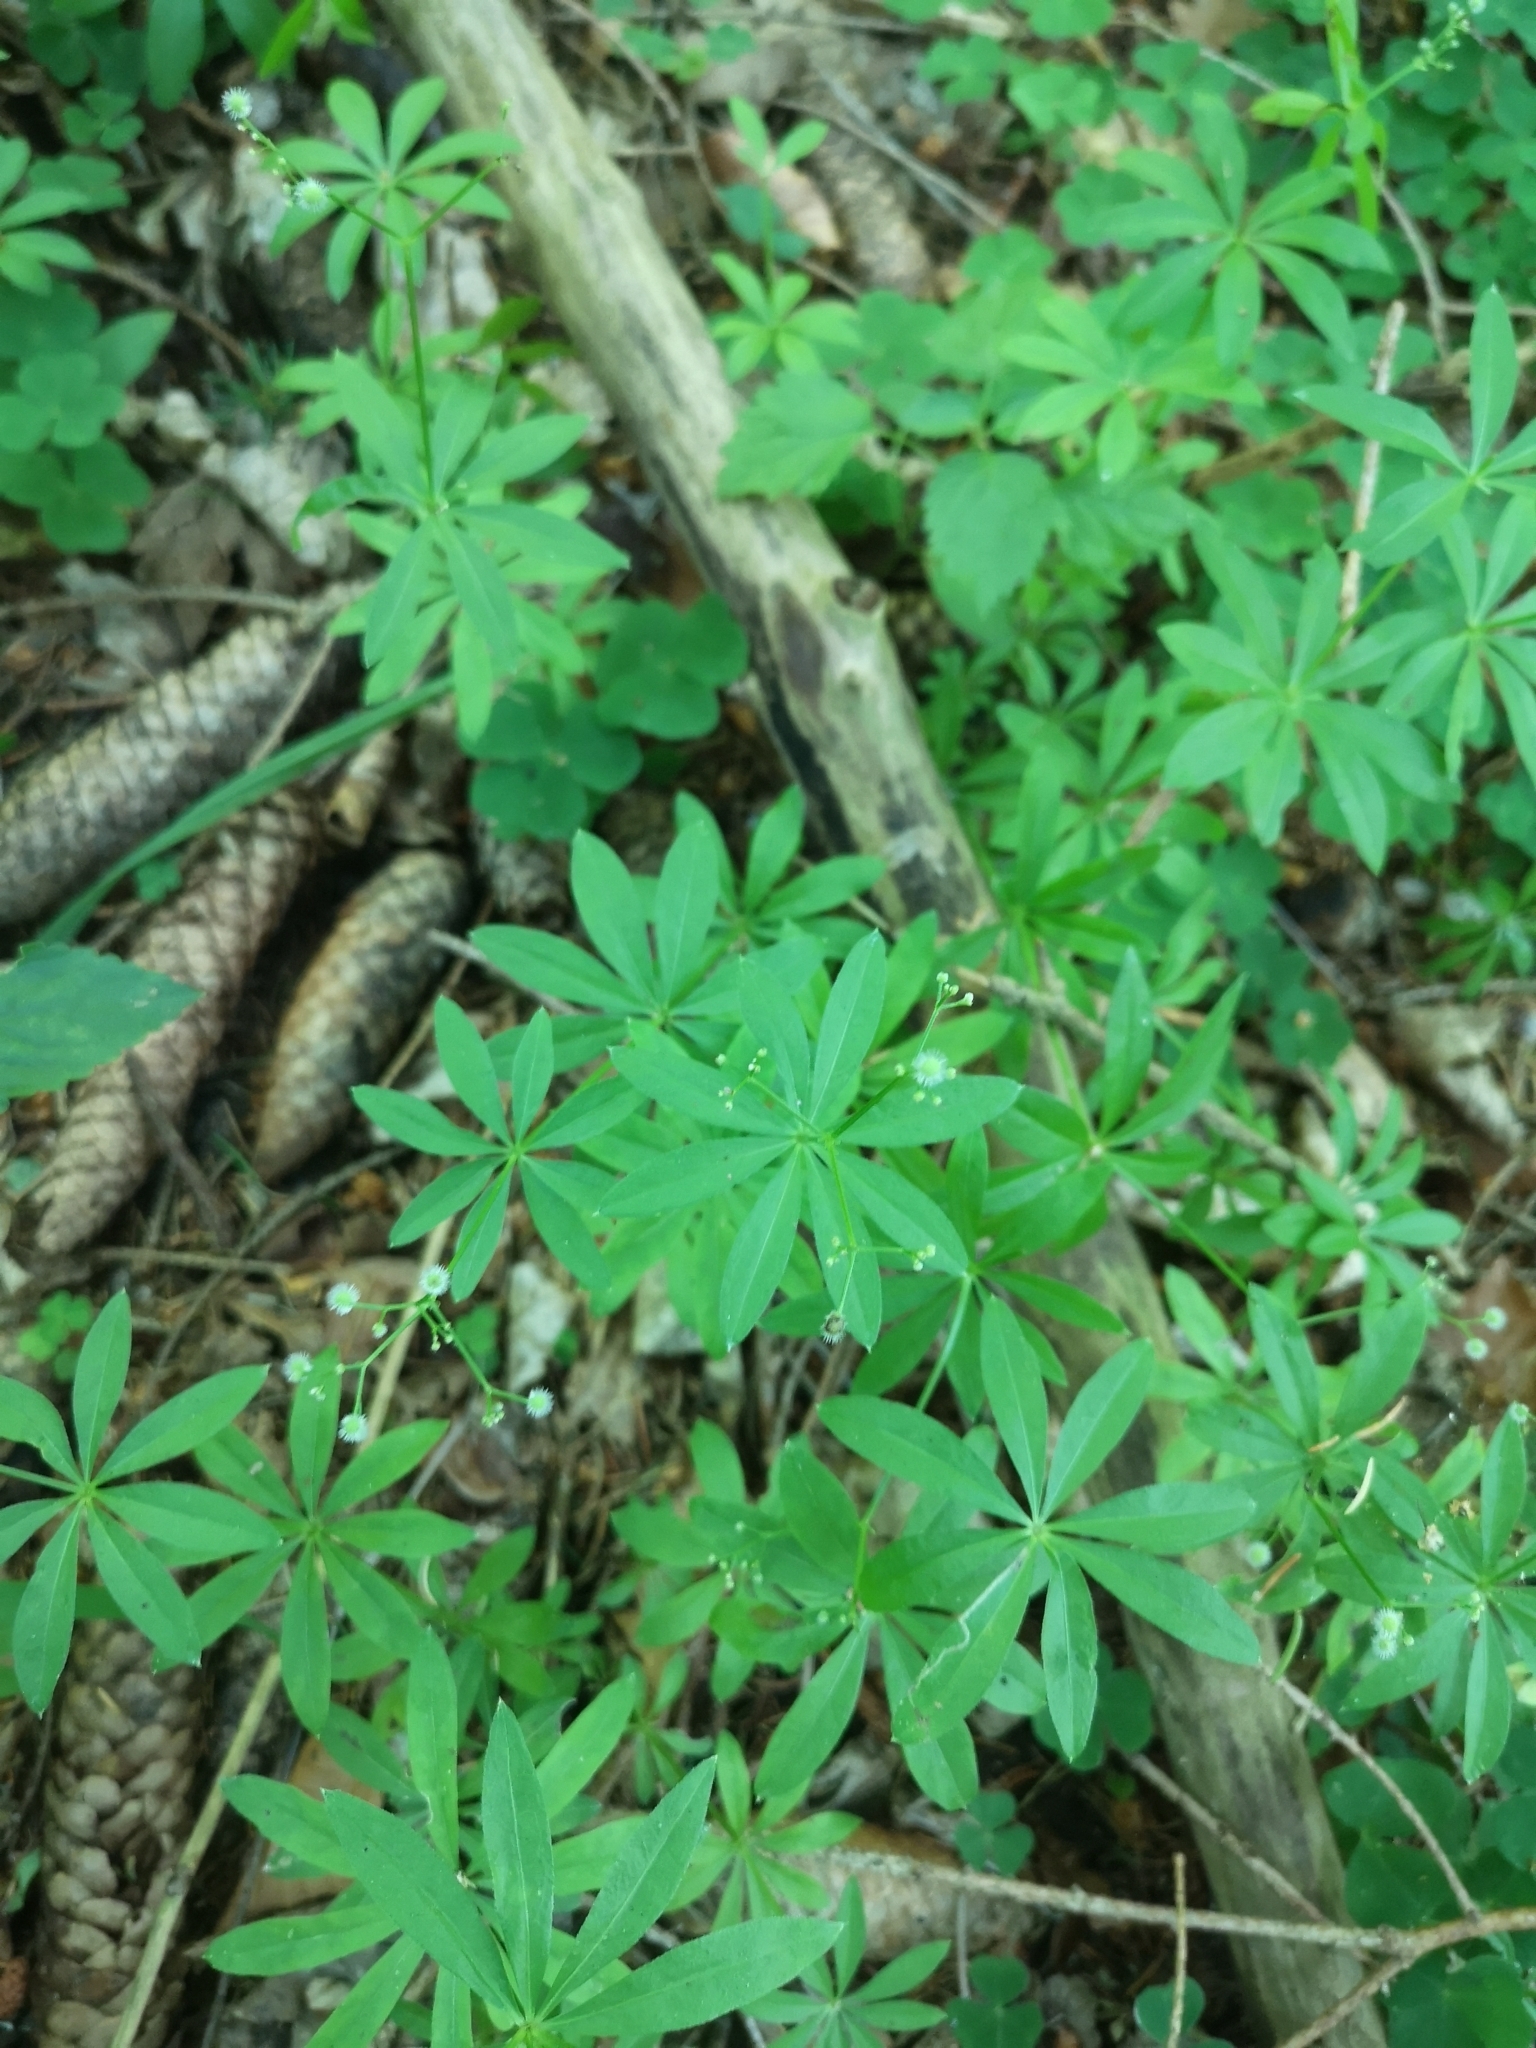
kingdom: Plantae
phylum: Tracheophyta
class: Magnoliopsida
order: Gentianales
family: Rubiaceae
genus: Galium
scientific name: Galium odoratum
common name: Sweet woodruff
